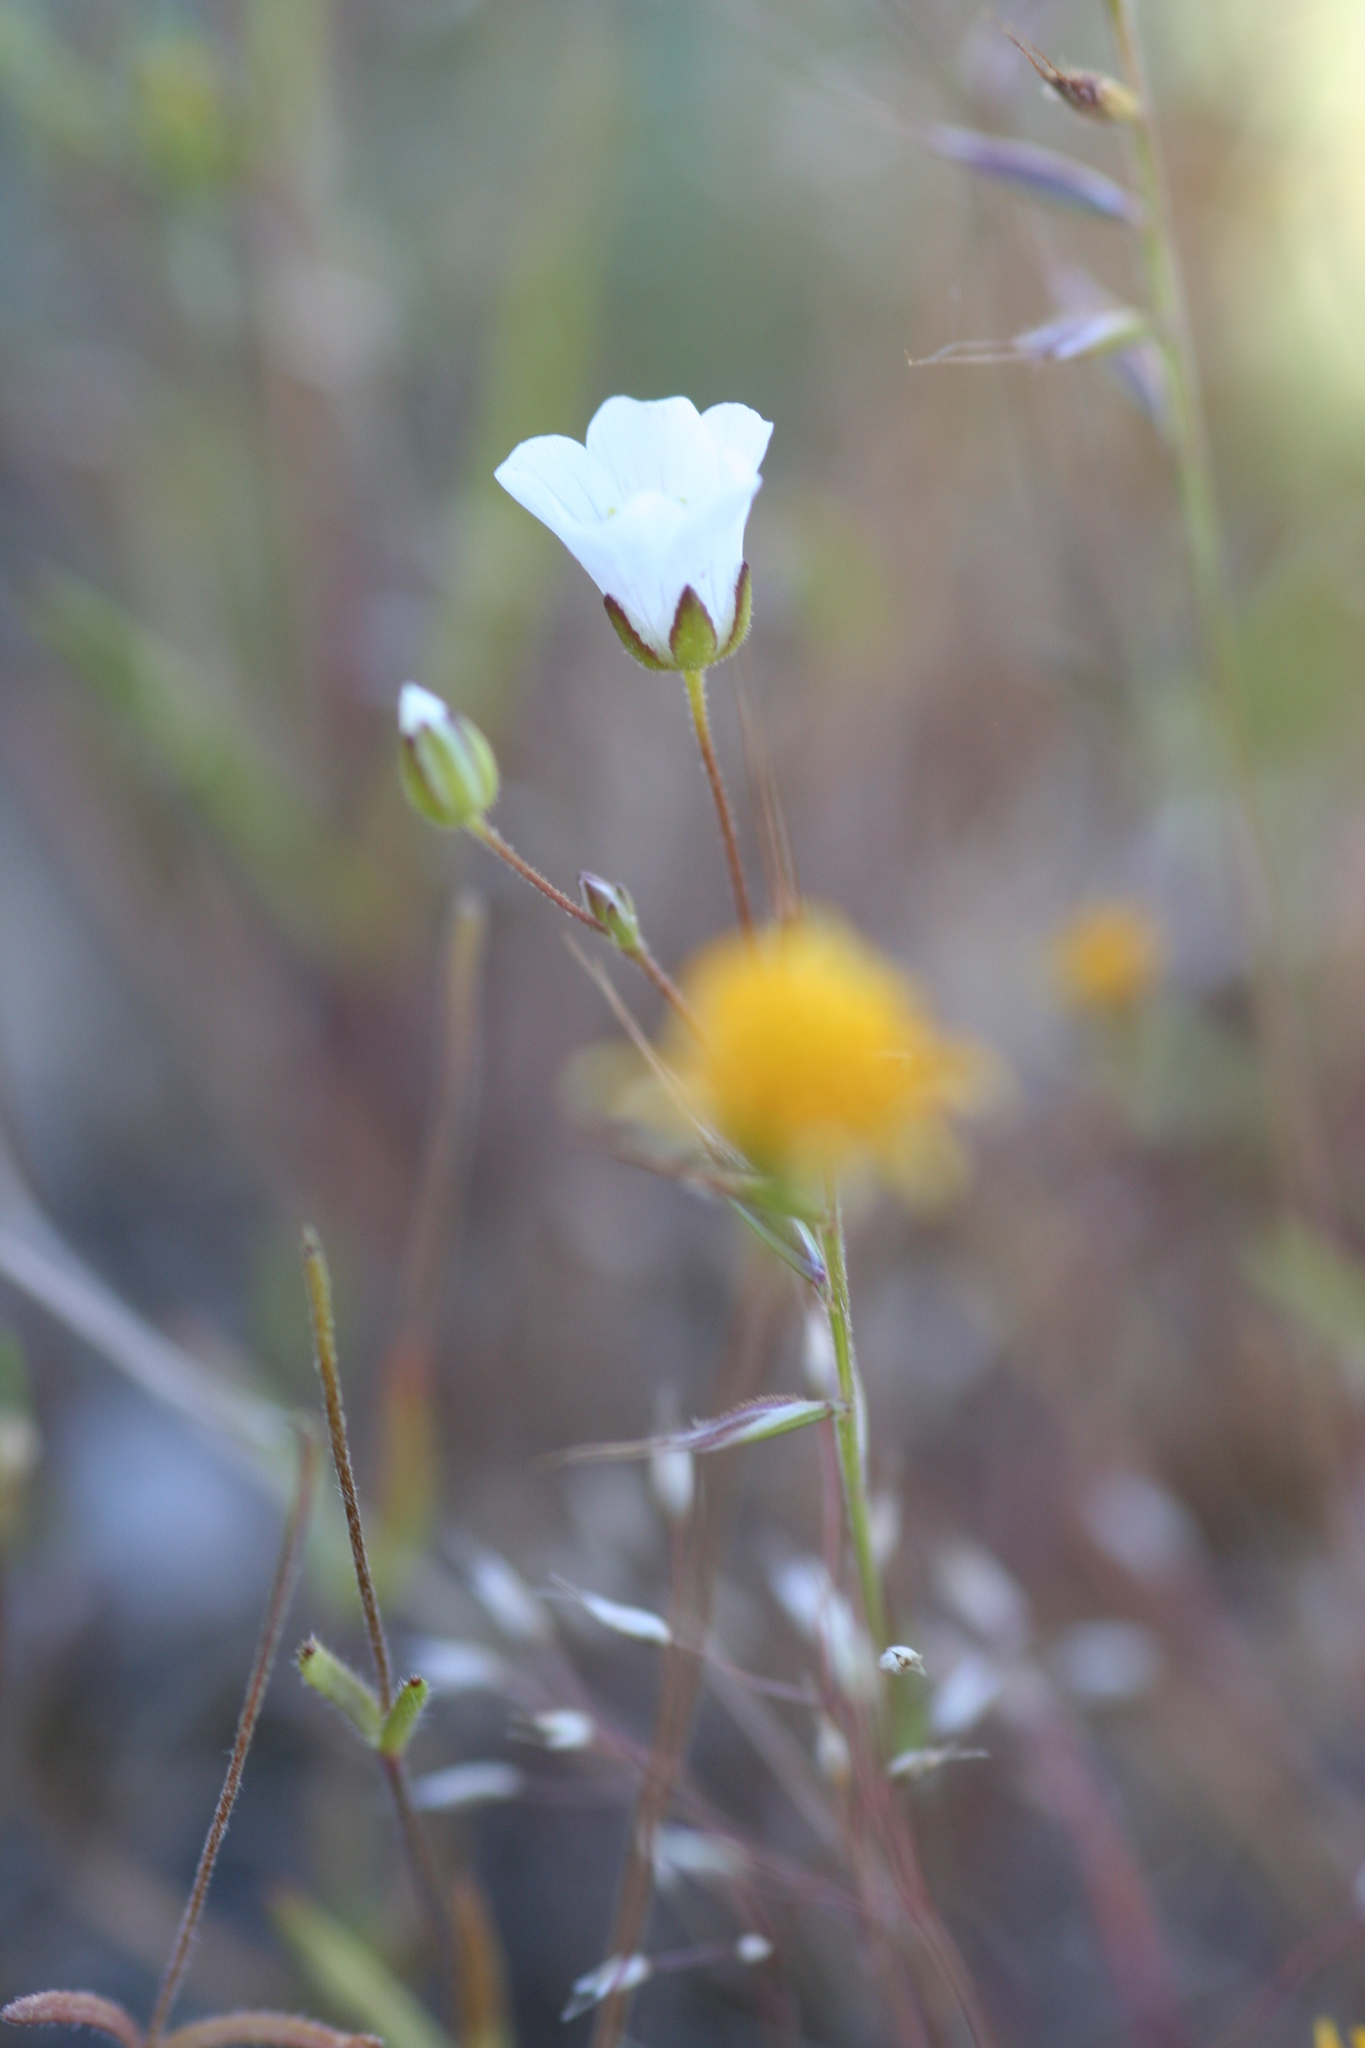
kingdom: Plantae
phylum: Tracheophyta
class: Magnoliopsida
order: Caryophyllales
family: Caryophyllaceae
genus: Sabulina
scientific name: Sabulina douglasii
